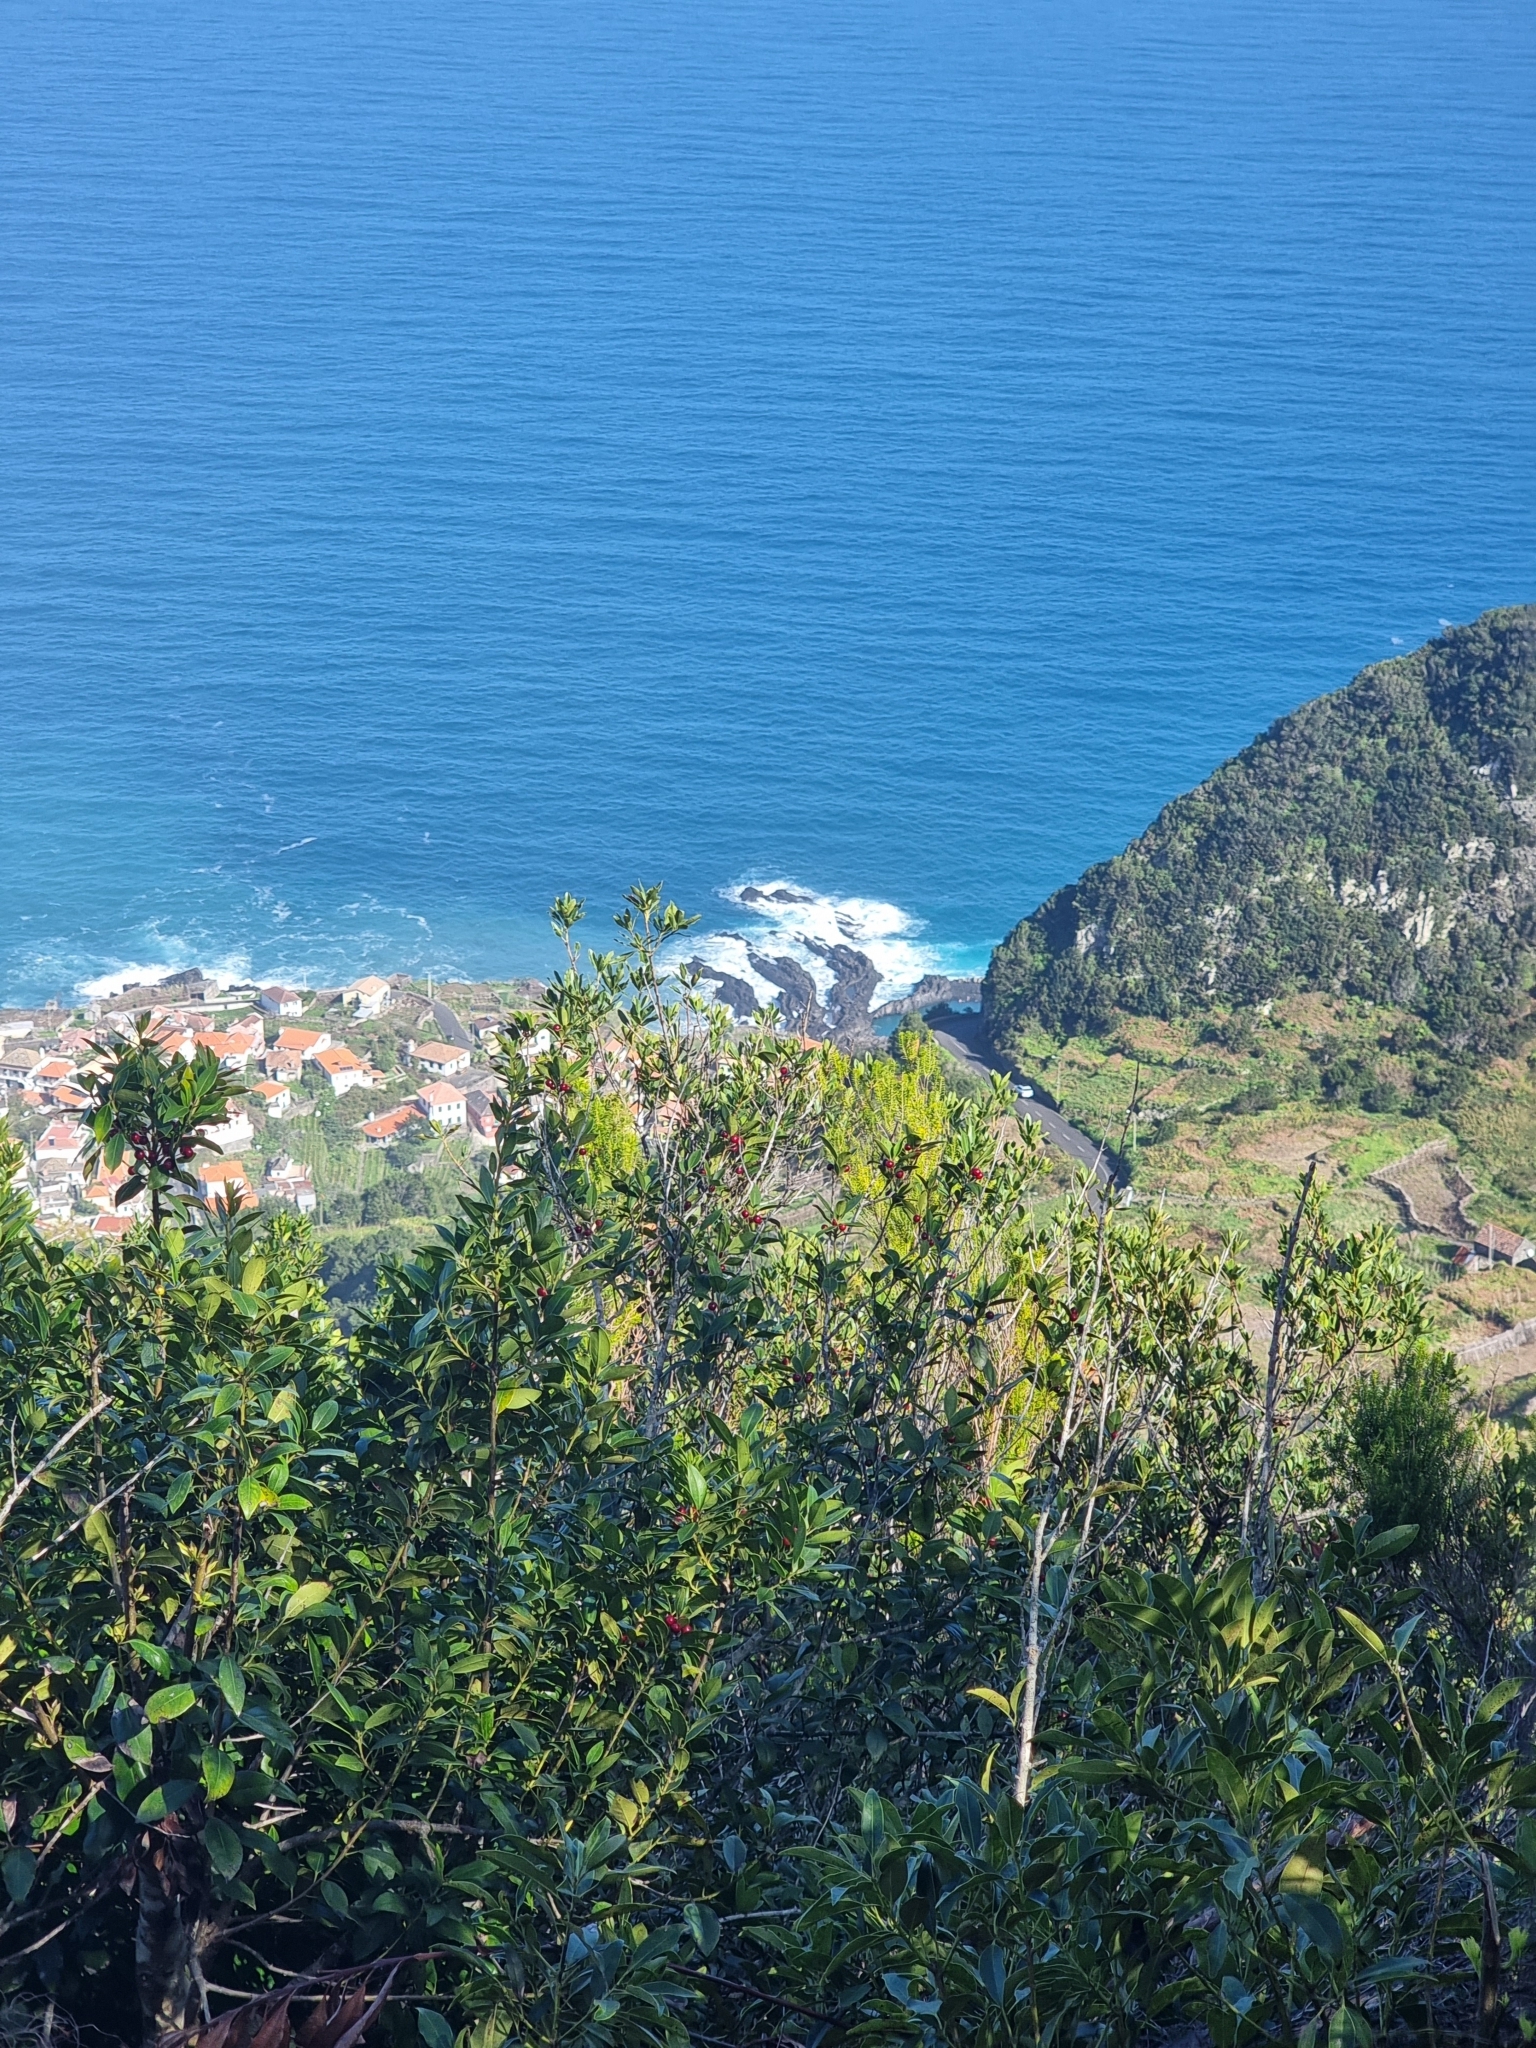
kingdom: Plantae
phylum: Tracheophyta
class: Magnoliopsida
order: Aquifoliales
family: Aquifoliaceae
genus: Ilex
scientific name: Ilex canariensis
